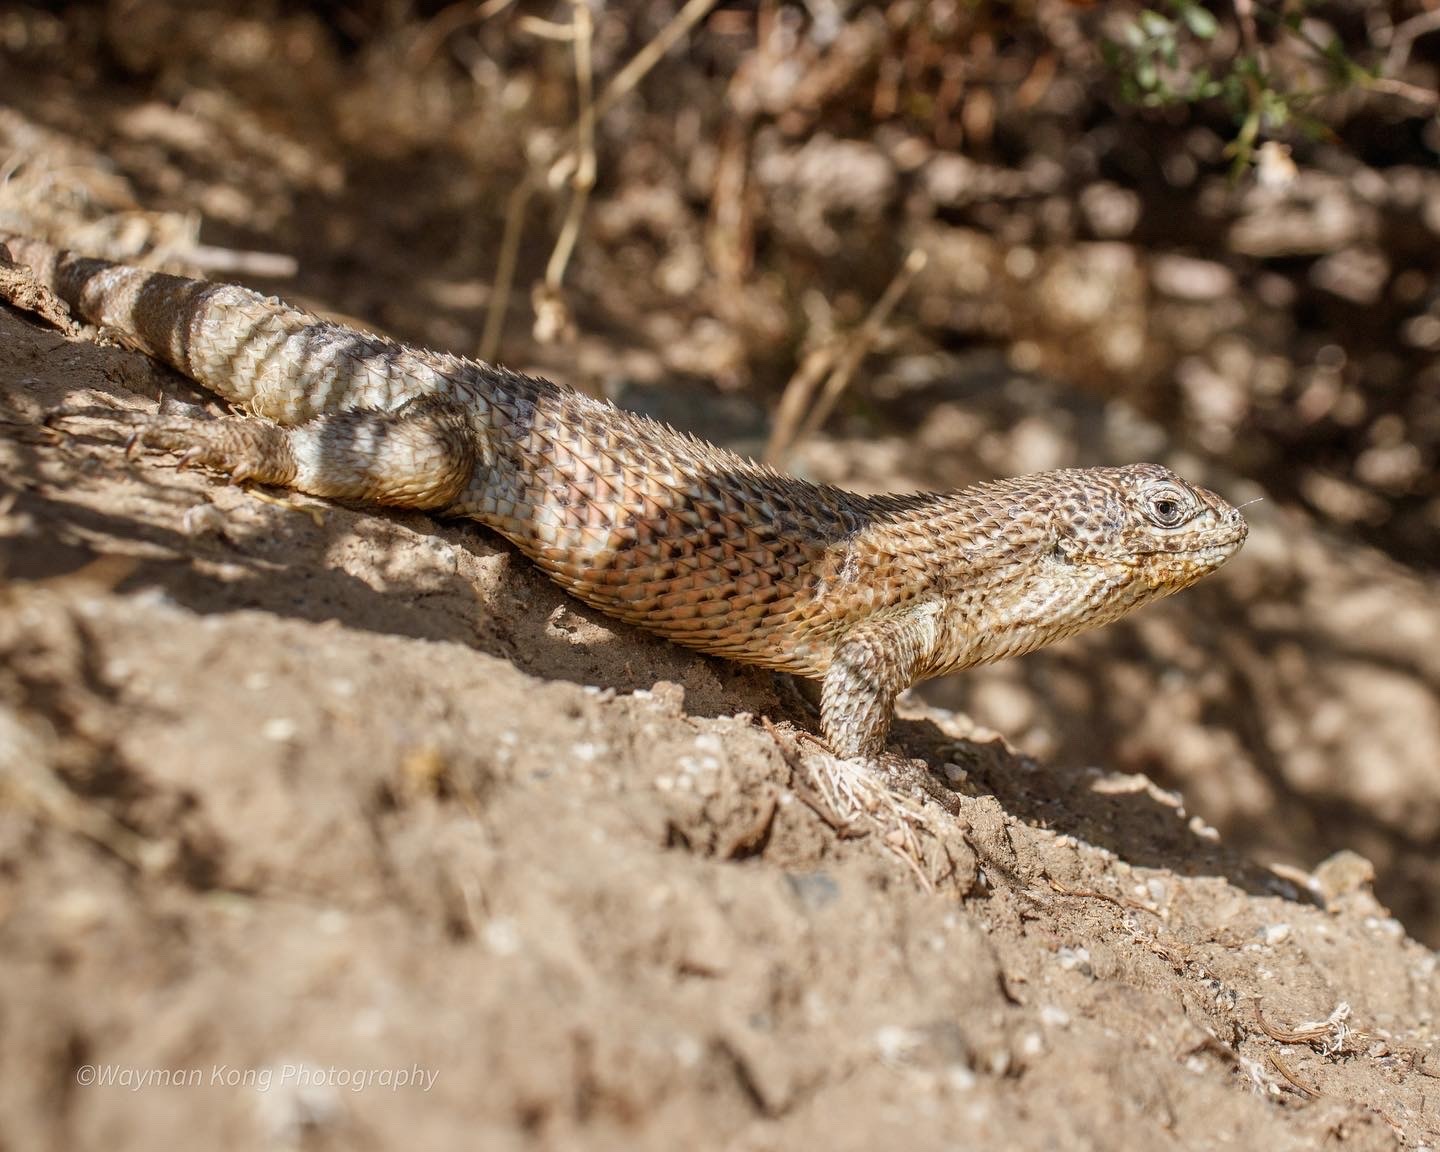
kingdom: Animalia
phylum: Chordata
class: Squamata
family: Liolaemidae
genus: Liolaemus
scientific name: Liolaemus nitidus
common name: Shining tree iguana
